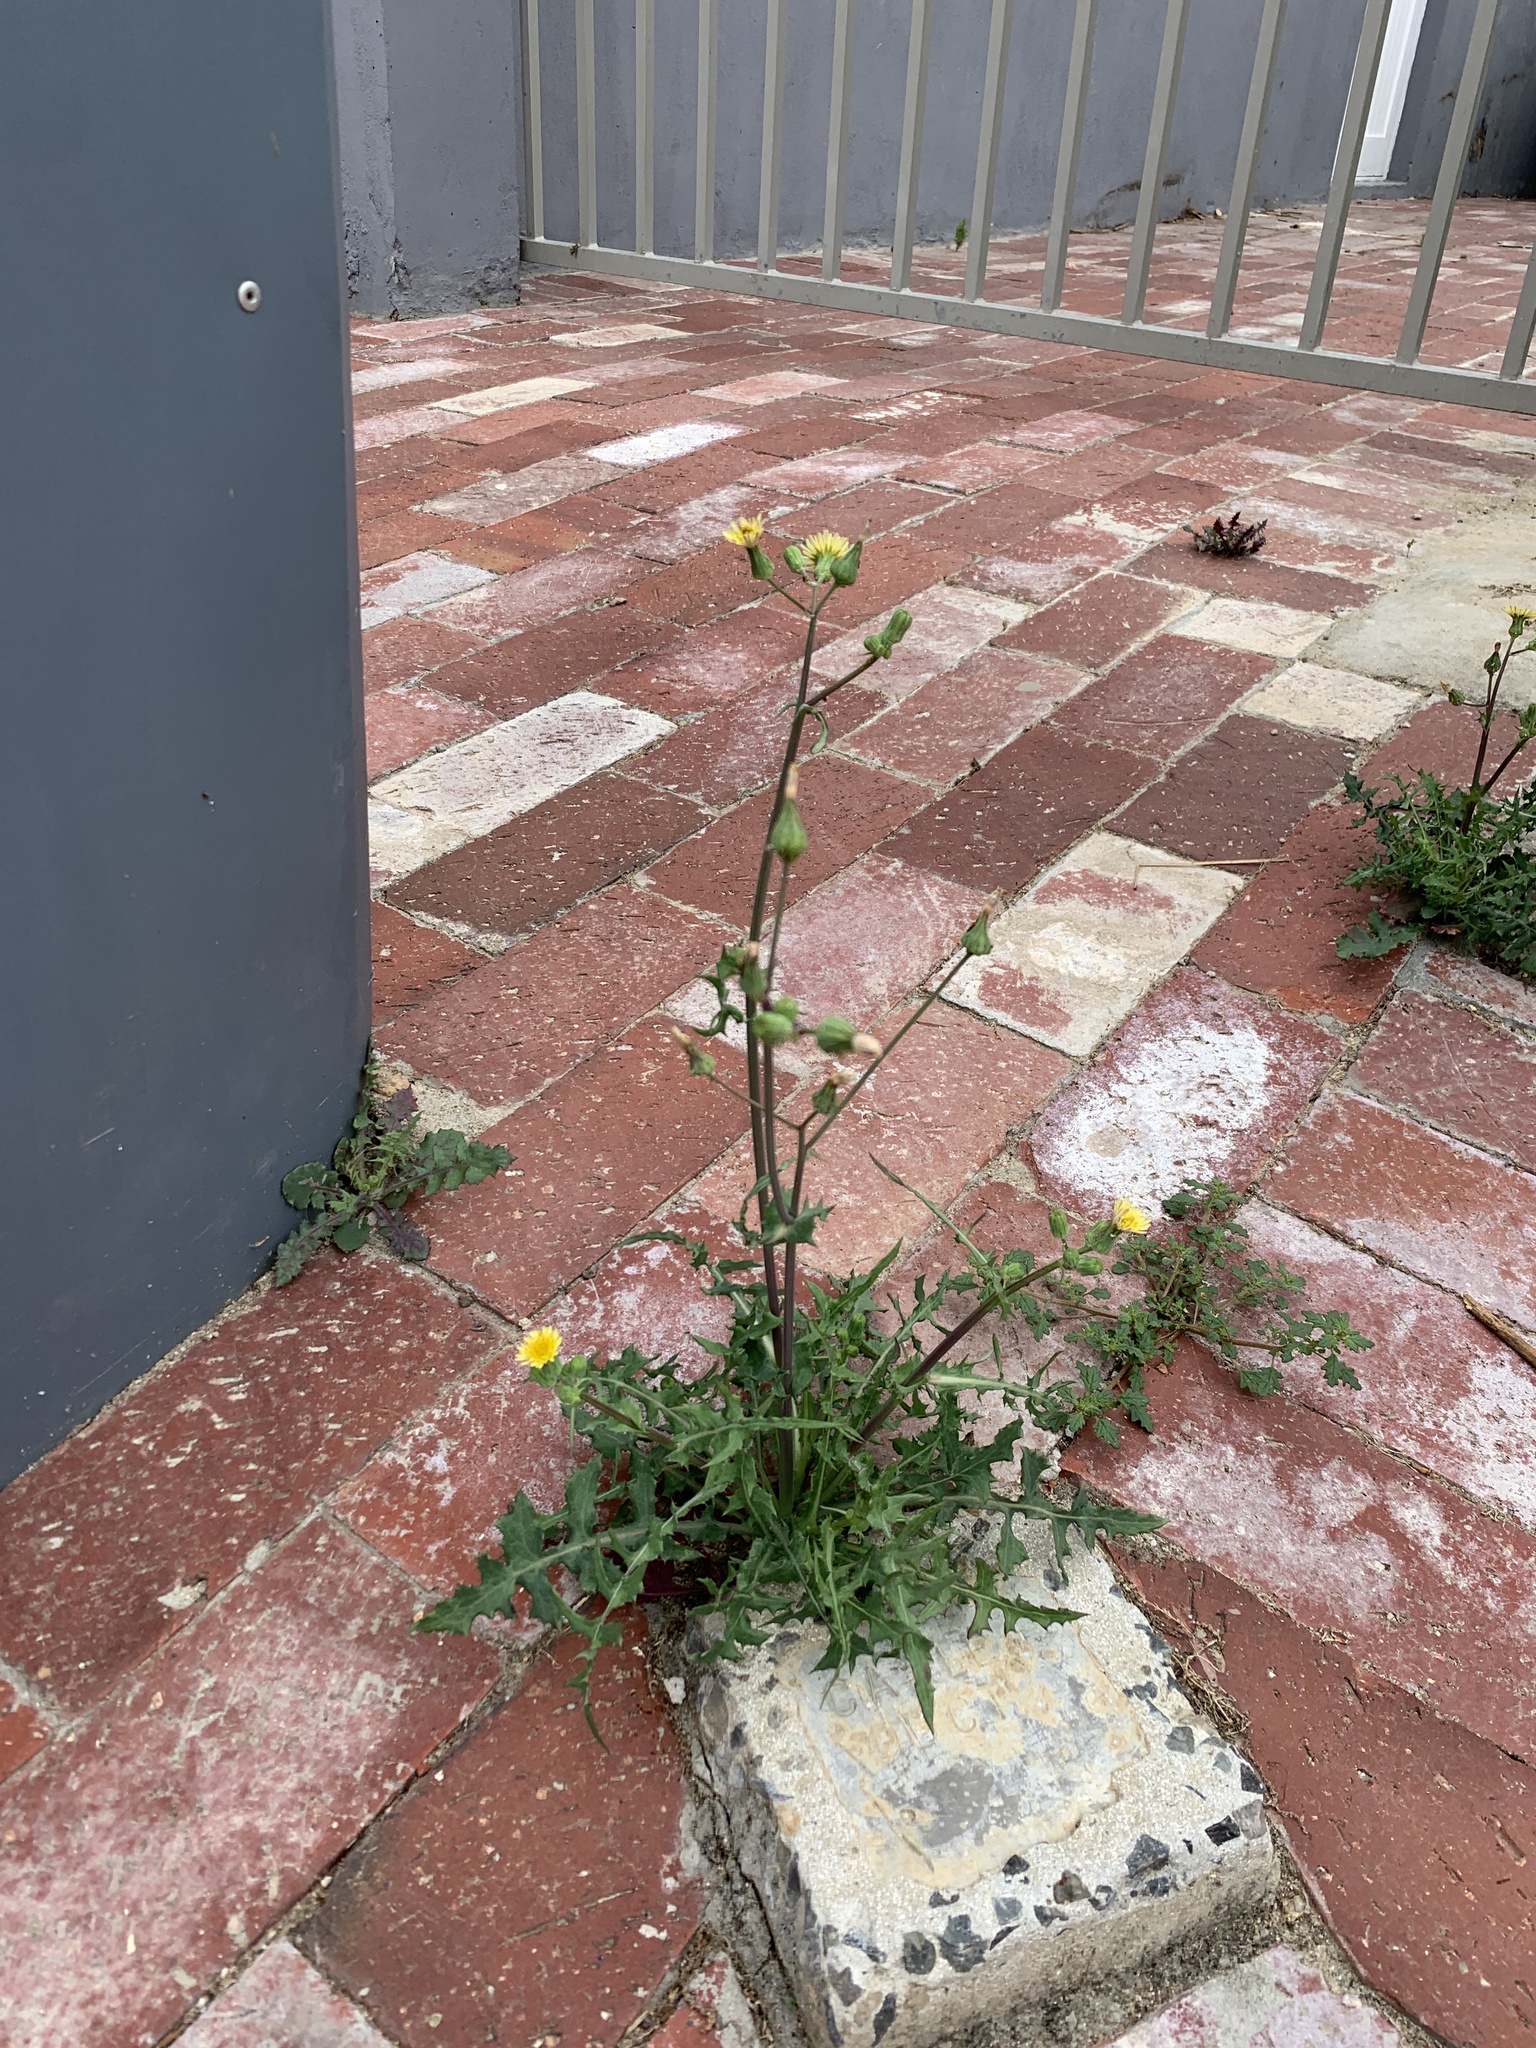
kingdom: Plantae
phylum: Tracheophyta
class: Magnoliopsida
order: Asterales
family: Asteraceae
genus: Sonchus
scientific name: Sonchus oleraceus
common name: Common sowthistle
